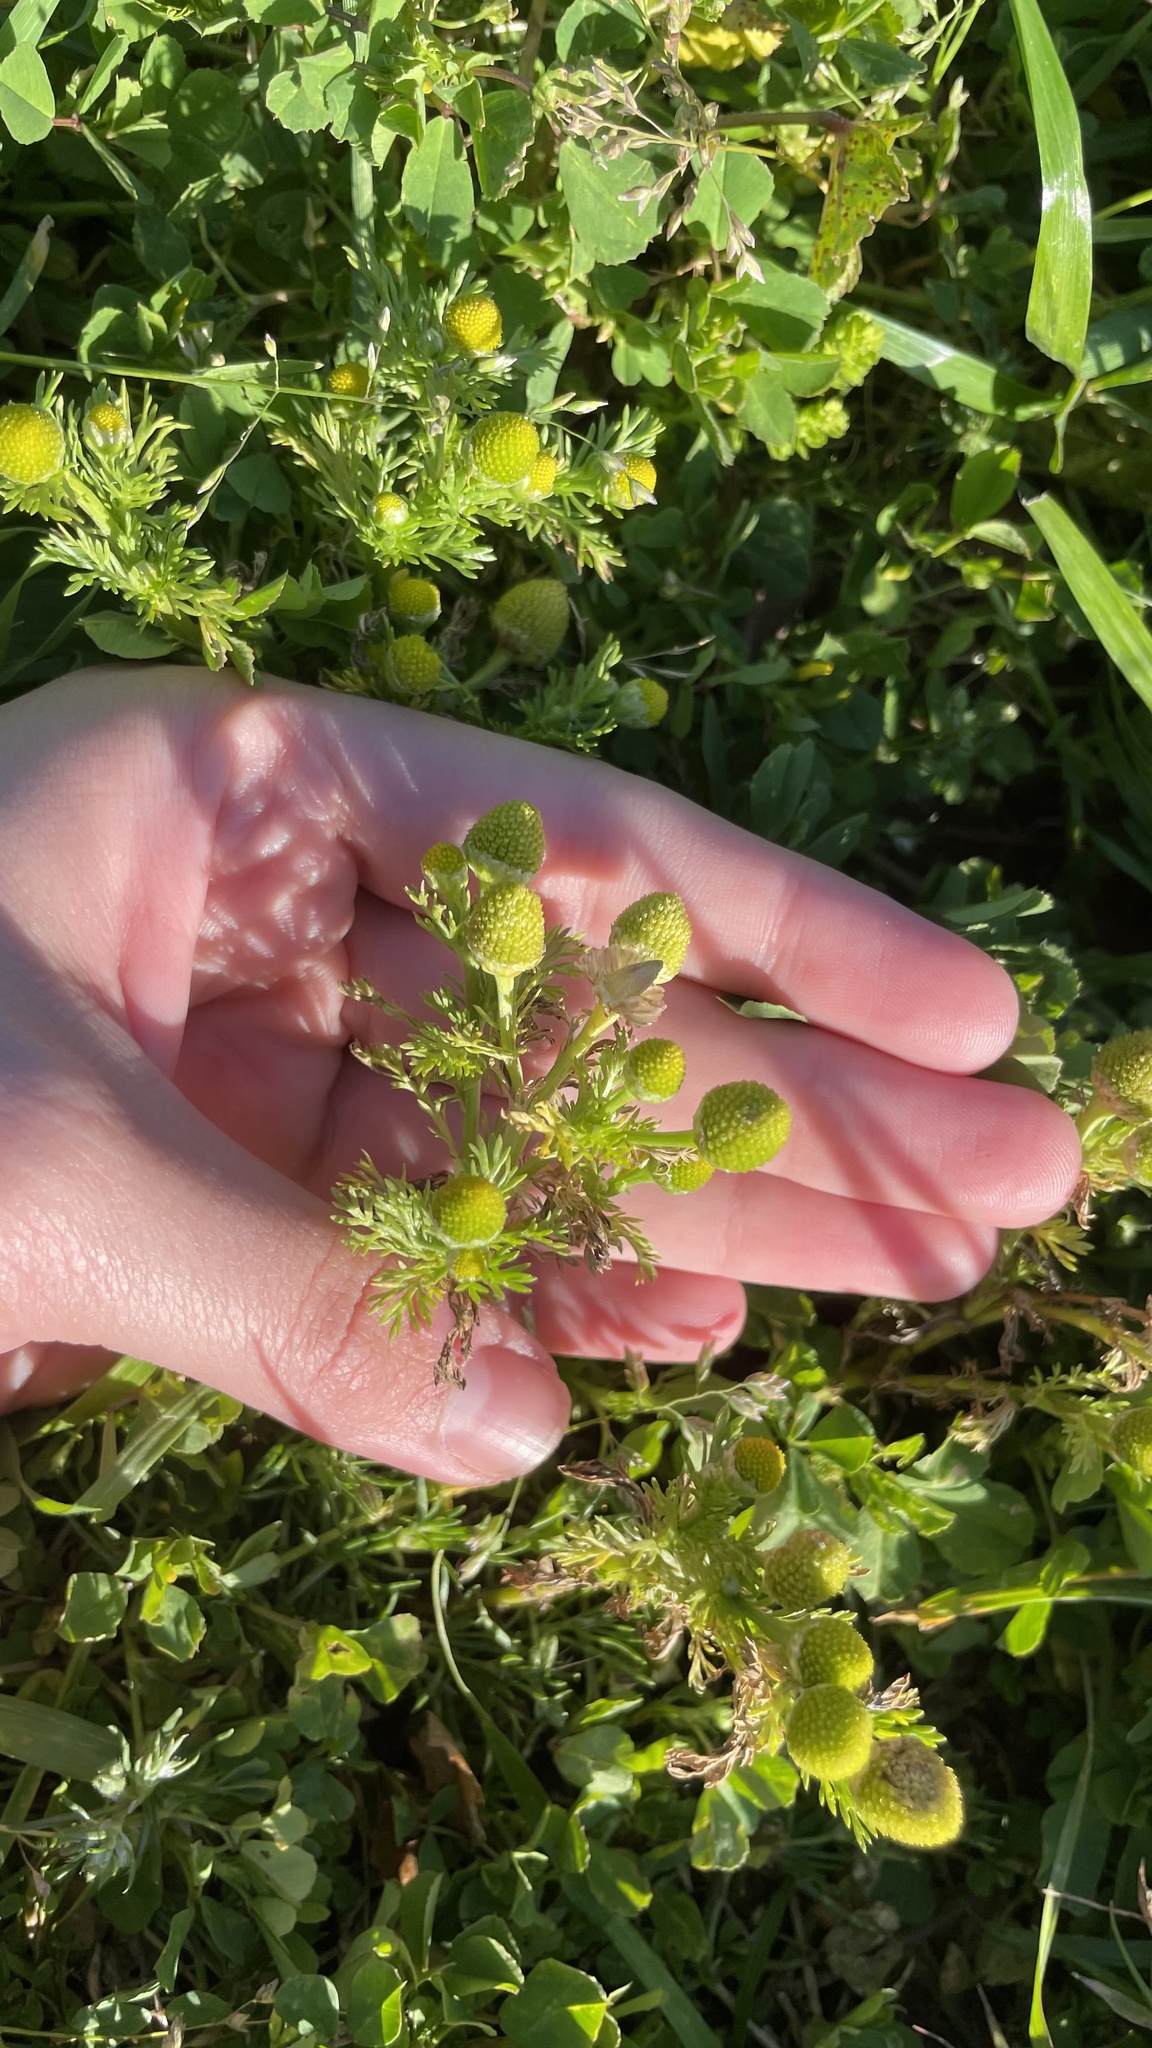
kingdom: Plantae
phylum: Tracheophyta
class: Magnoliopsida
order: Asterales
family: Asteraceae
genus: Matricaria
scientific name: Matricaria discoidea
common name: Disc mayweed
